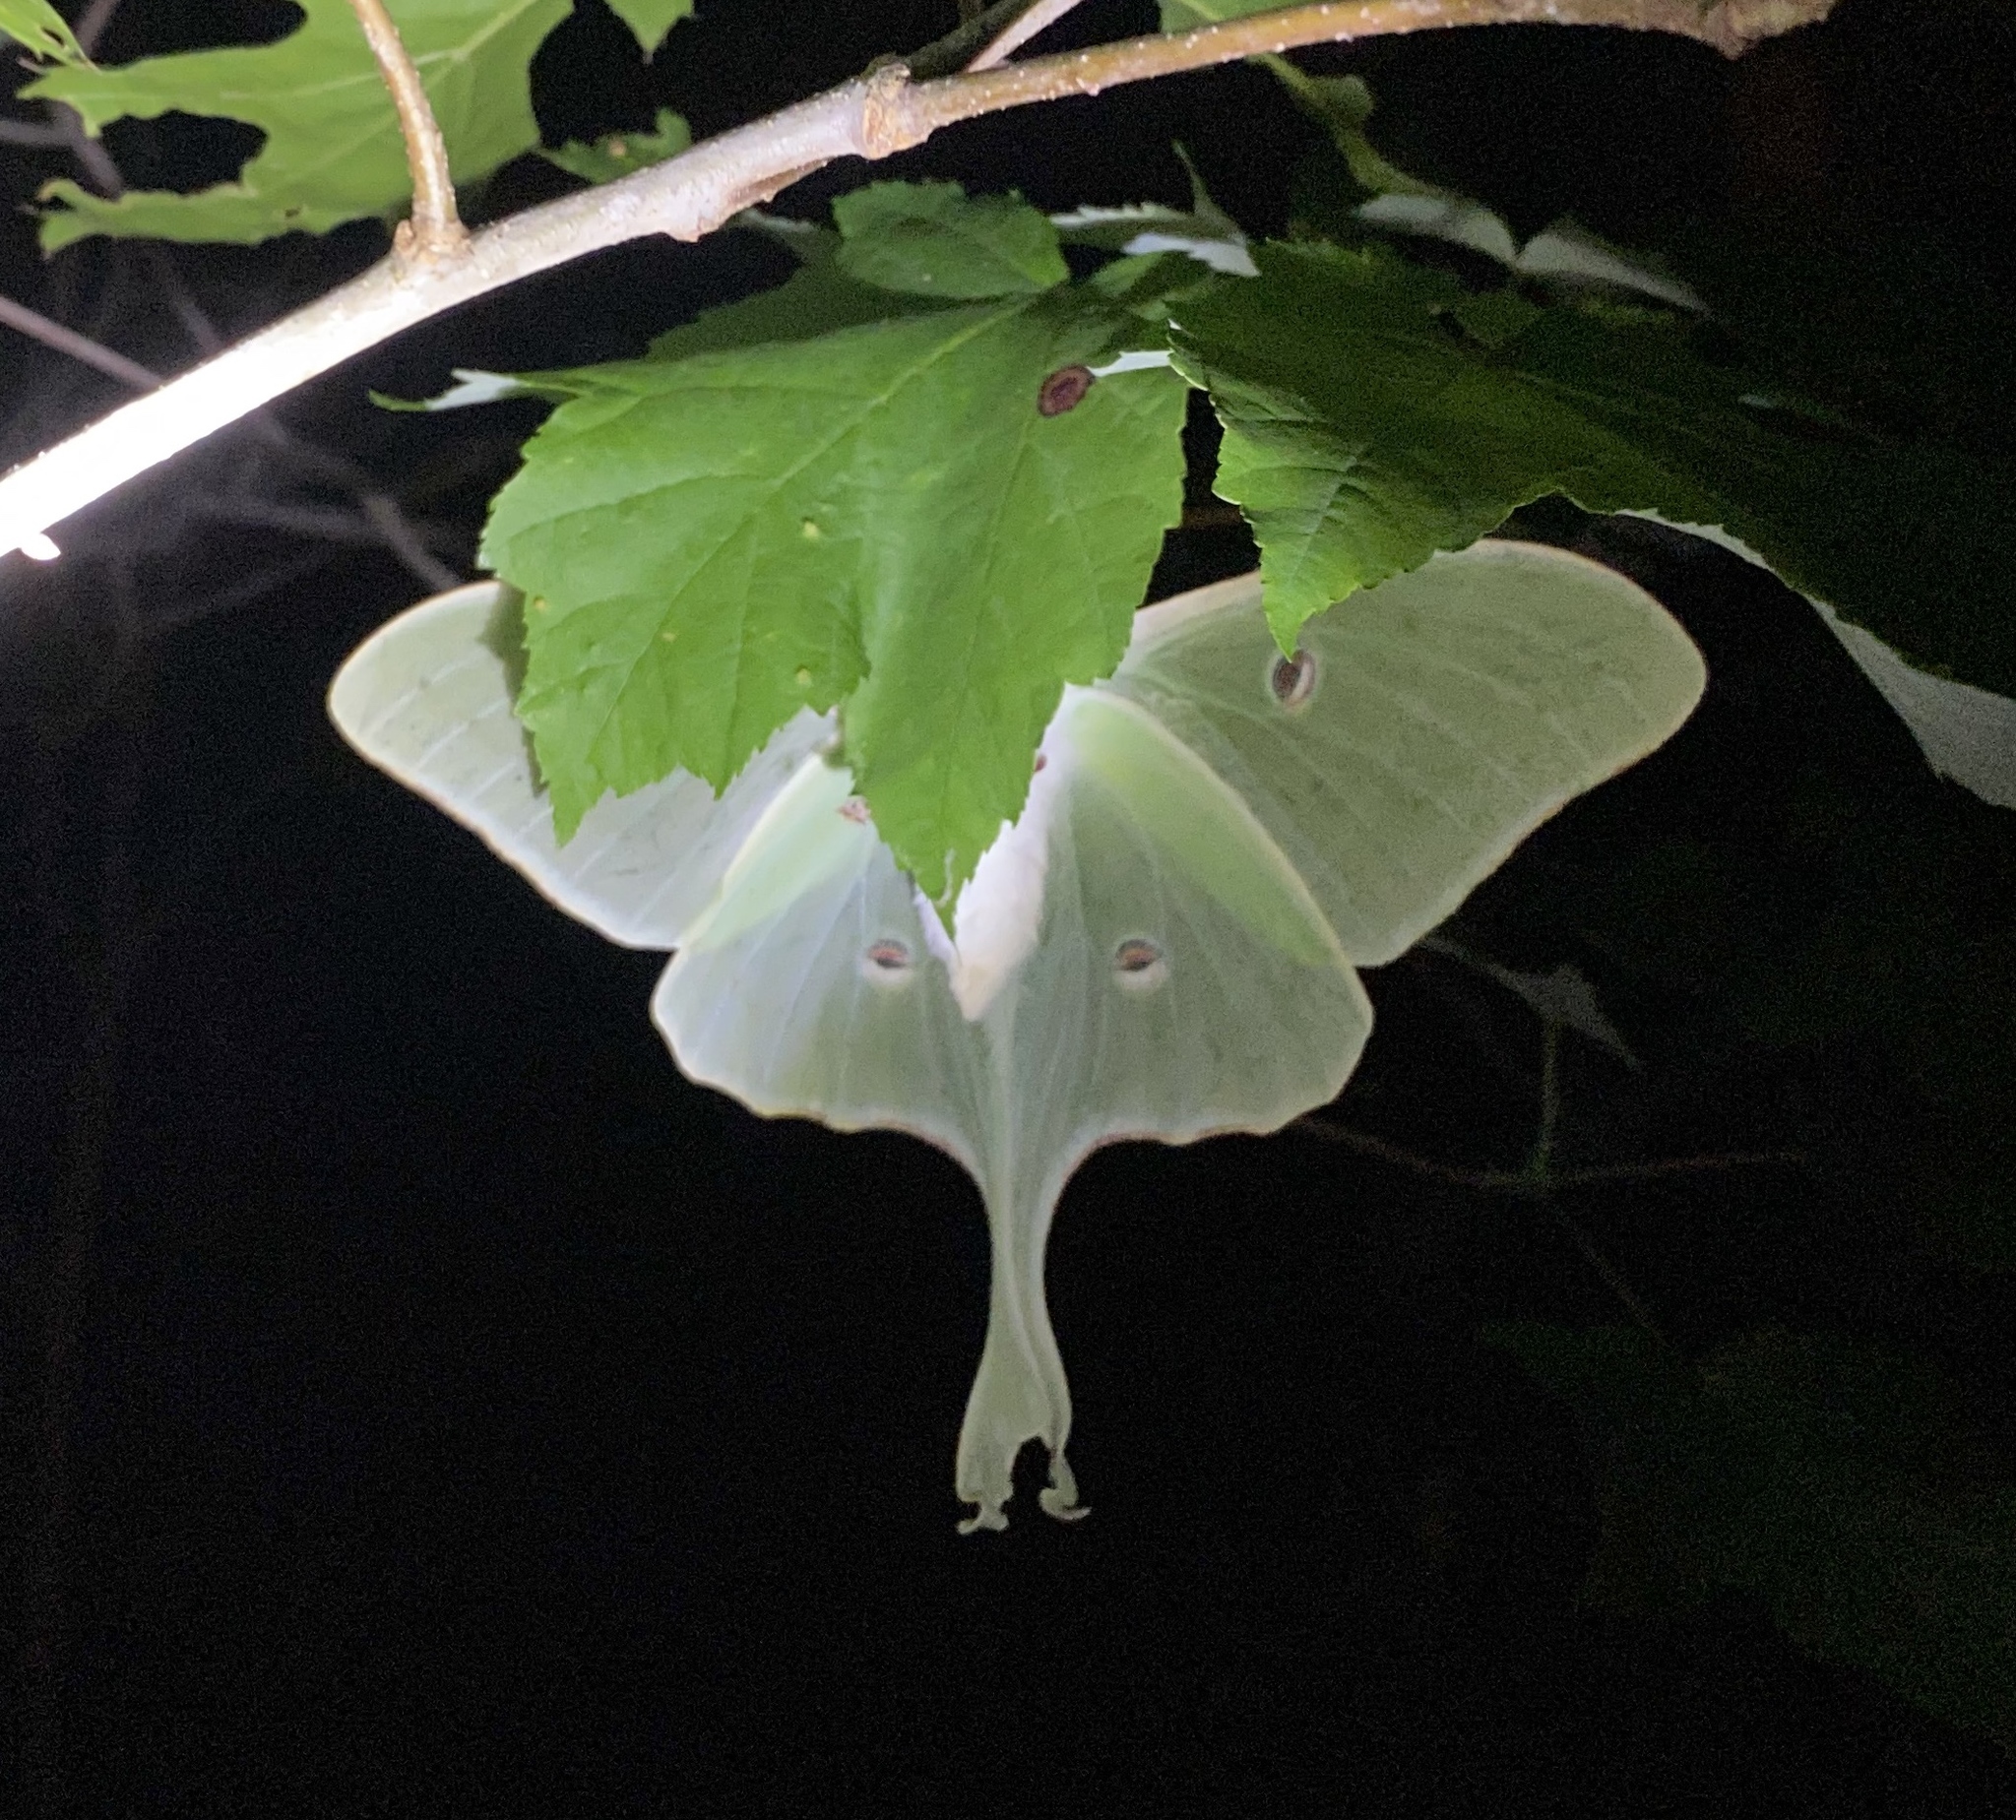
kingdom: Animalia
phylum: Arthropoda
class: Insecta
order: Lepidoptera
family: Saturniidae
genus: Actias
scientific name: Actias luna
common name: Luna moth
